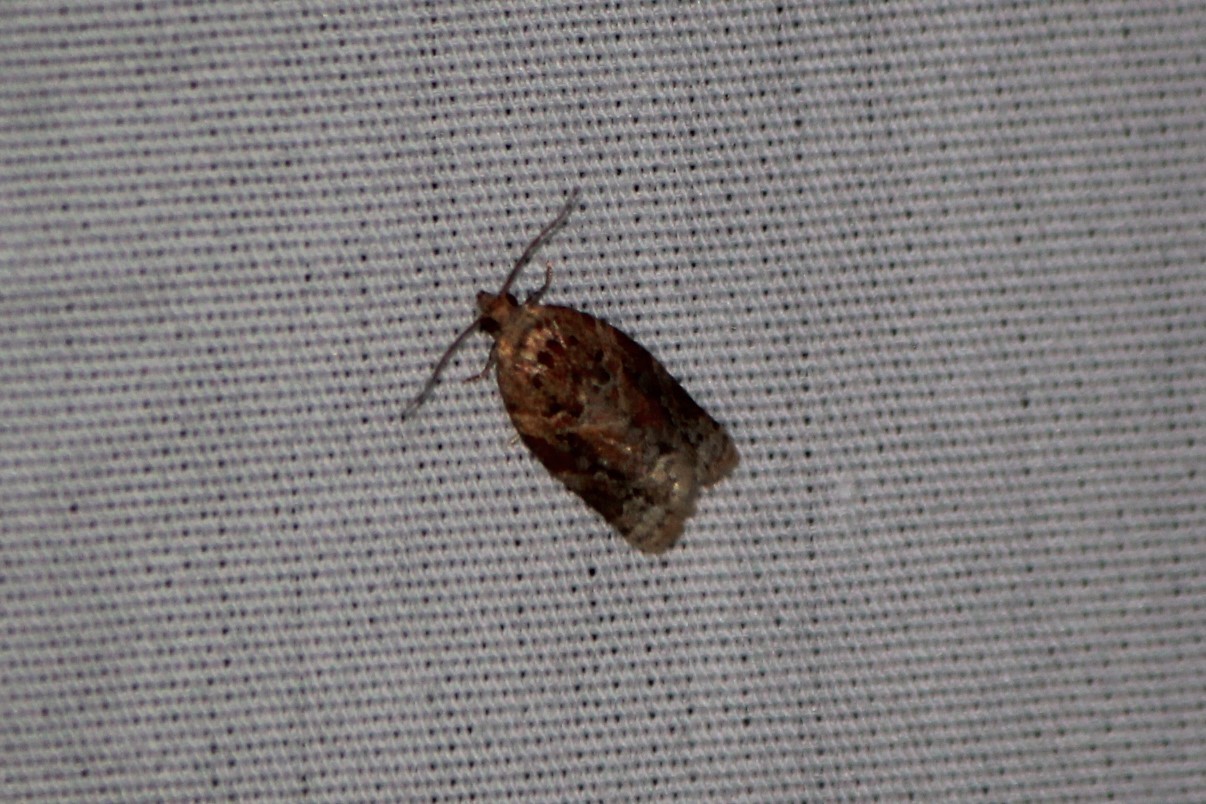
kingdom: Animalia
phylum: Arthropoda
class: Insecta
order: Lepidoptera
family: Tortricidae
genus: Argyrotaenia
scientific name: Argyrotaenia velutinana
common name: Red-banded leafroller moth
